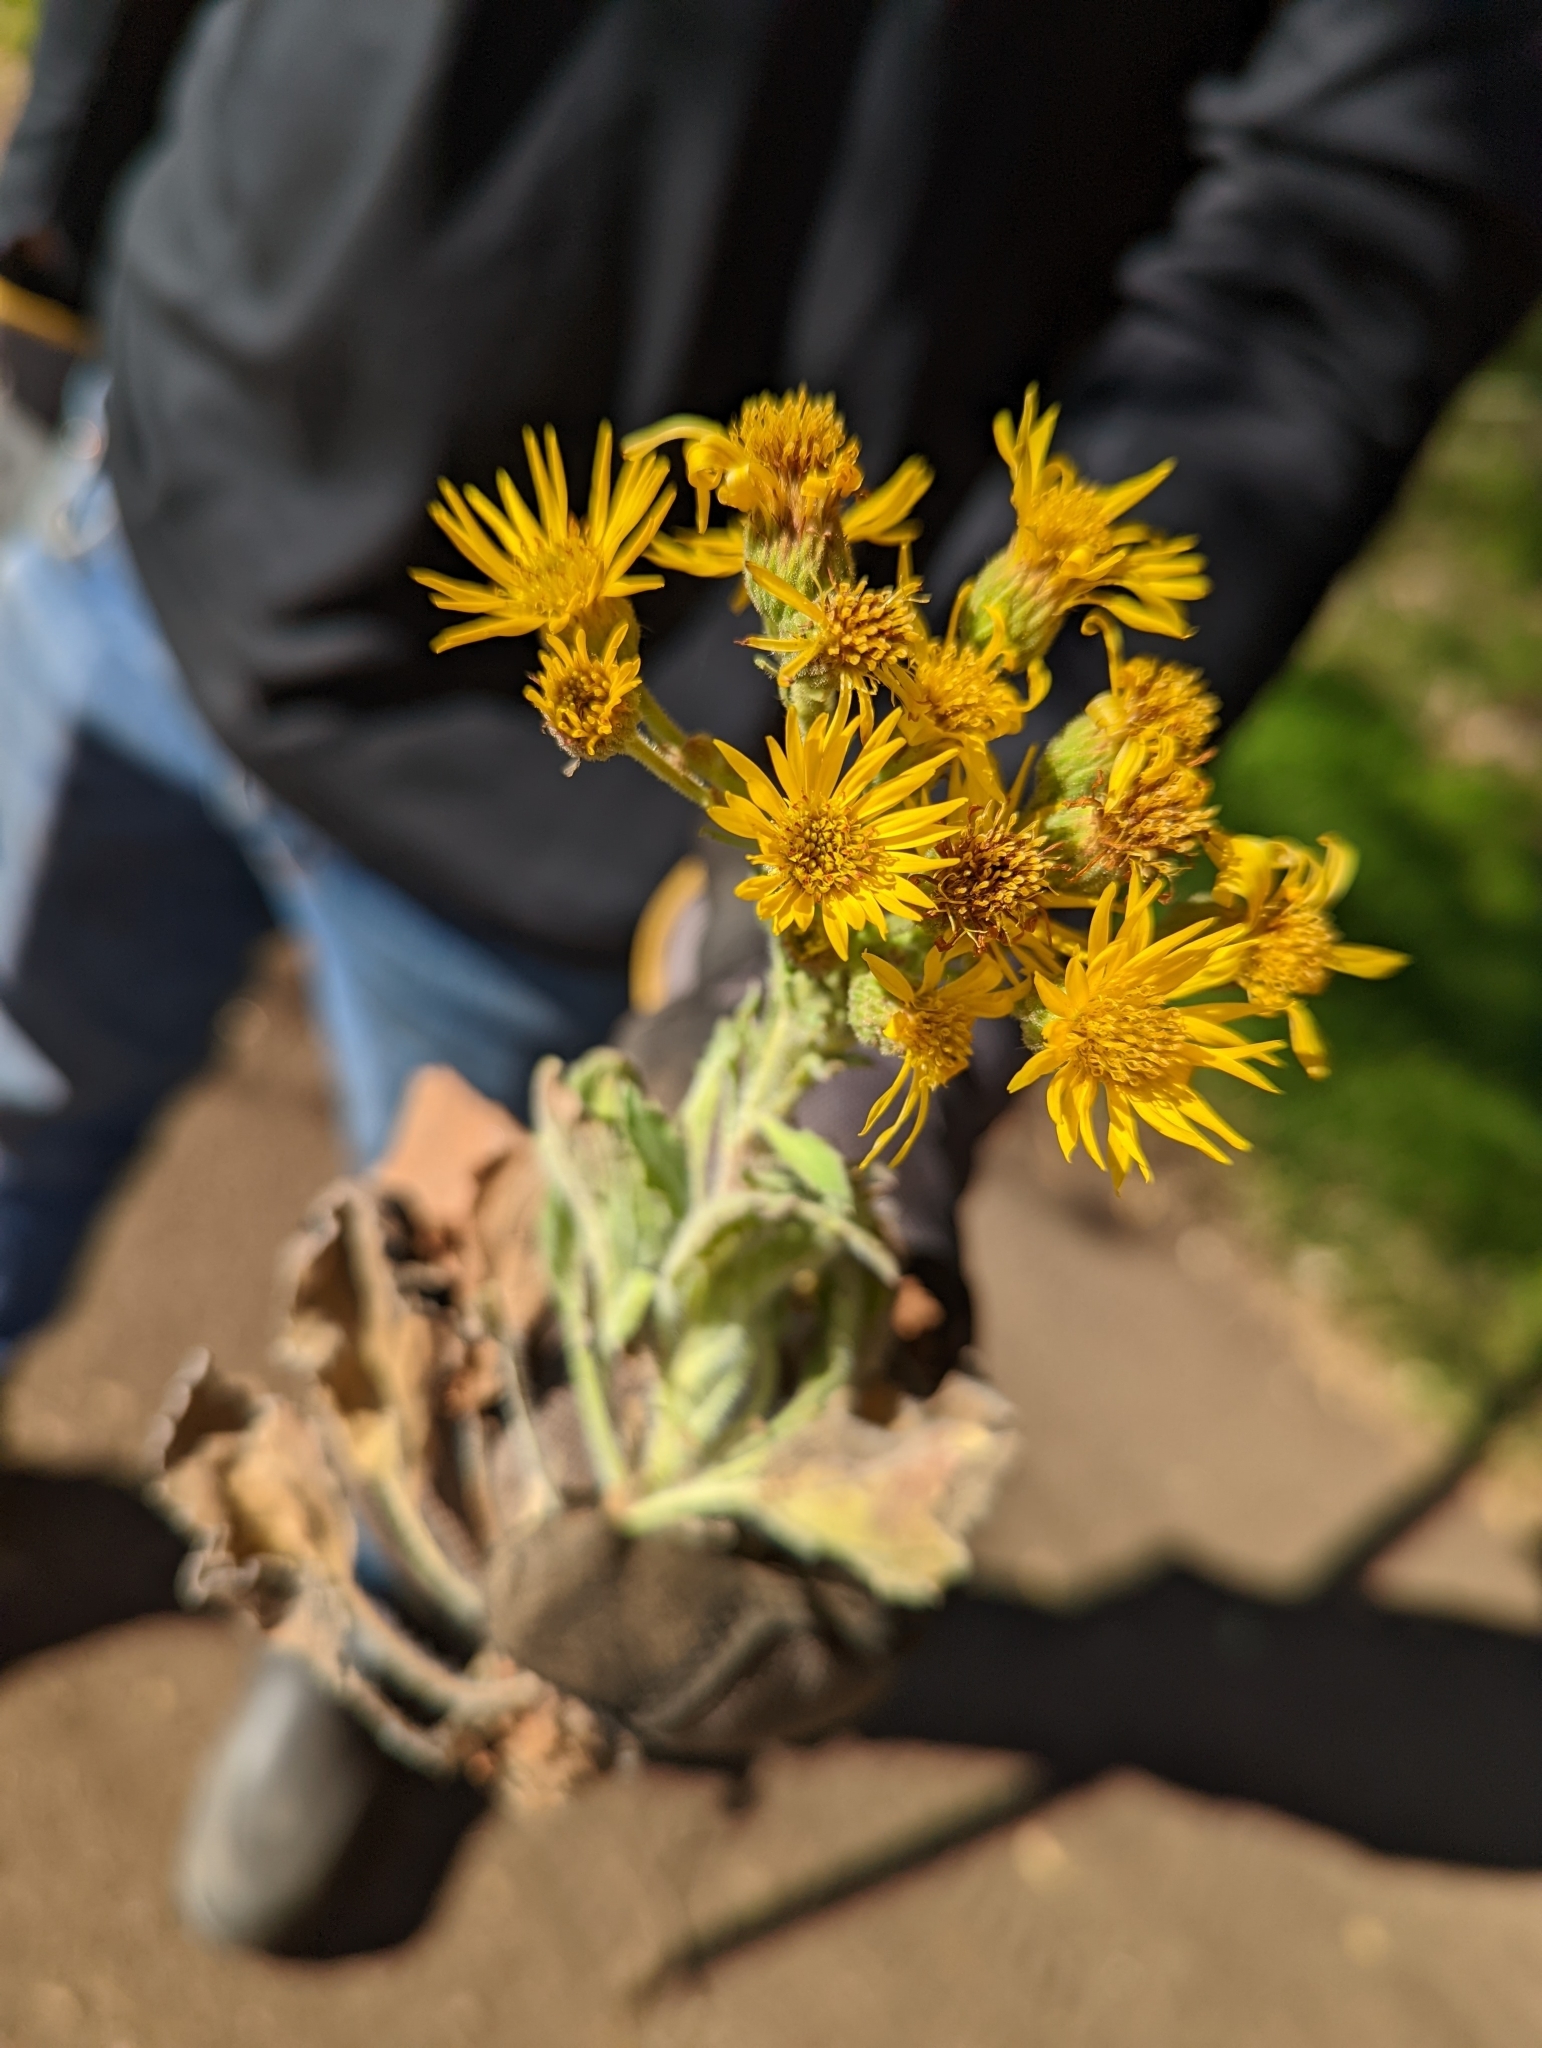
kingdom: Plantae
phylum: Tracheophyta
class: Magnoliopsida
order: Asterales
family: Asteraceae
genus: Heterotheca
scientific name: Heterotheca grandiflora
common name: Telegraphweed
